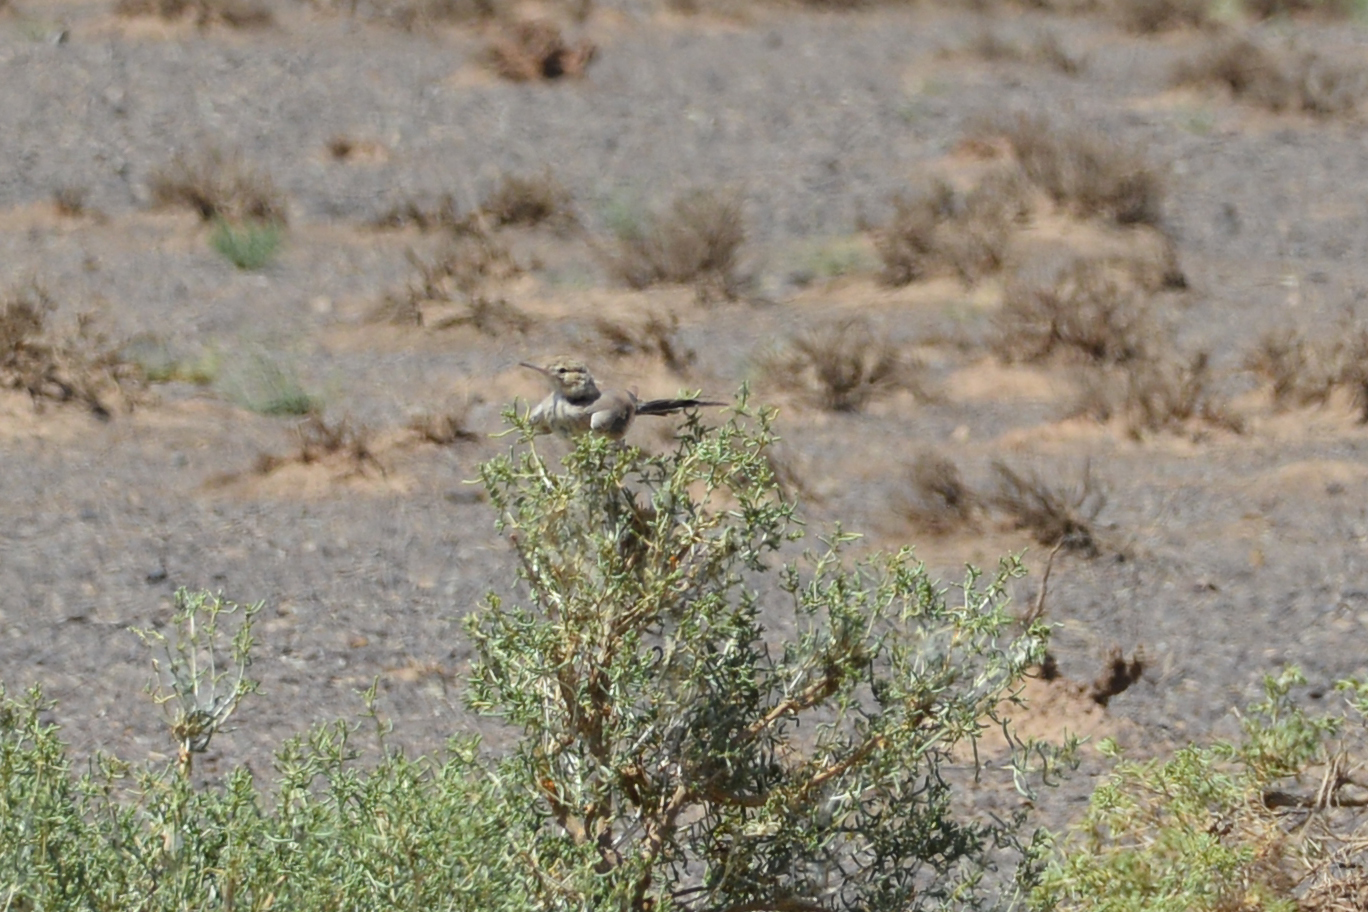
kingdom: Animalia
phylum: Chordata
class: Aves
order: Passeriformes
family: Alaudidae
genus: Alaemon
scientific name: Alaemon alaudipes
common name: Greater hoopoe-lark
